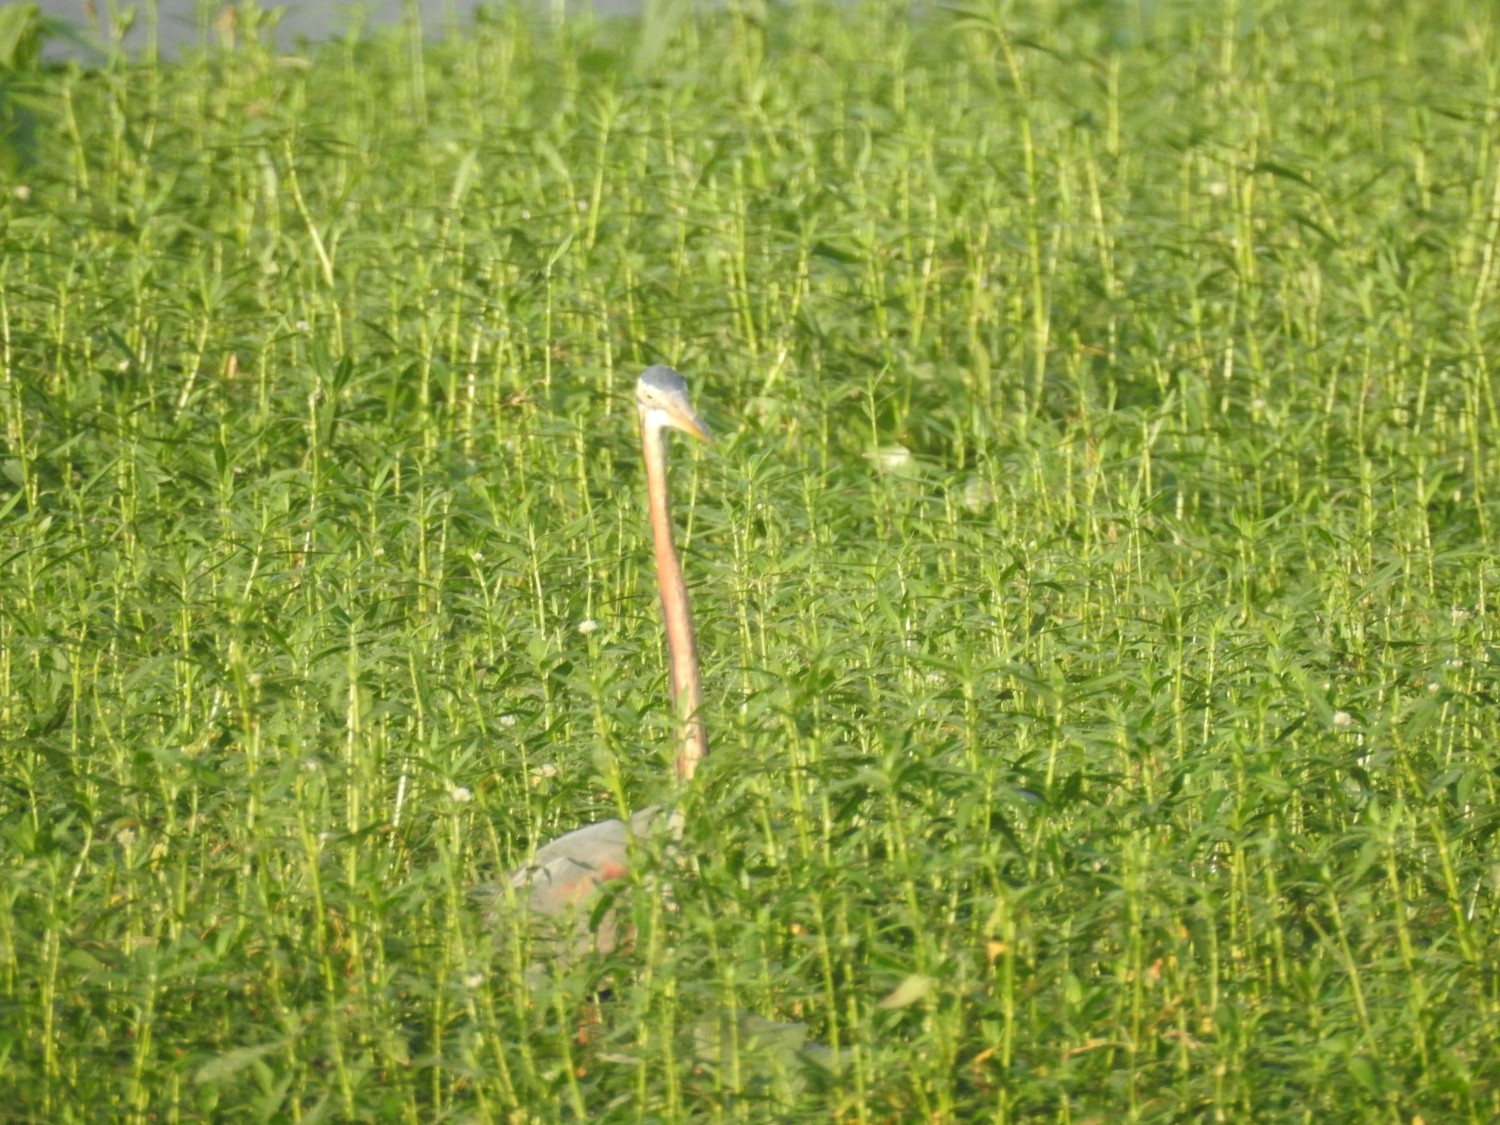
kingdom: Animalia
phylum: Chordata
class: Aves
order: Pelecaniformes
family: Ardeidae
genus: Ardea
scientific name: Ardea purpurea
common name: Purple heron
